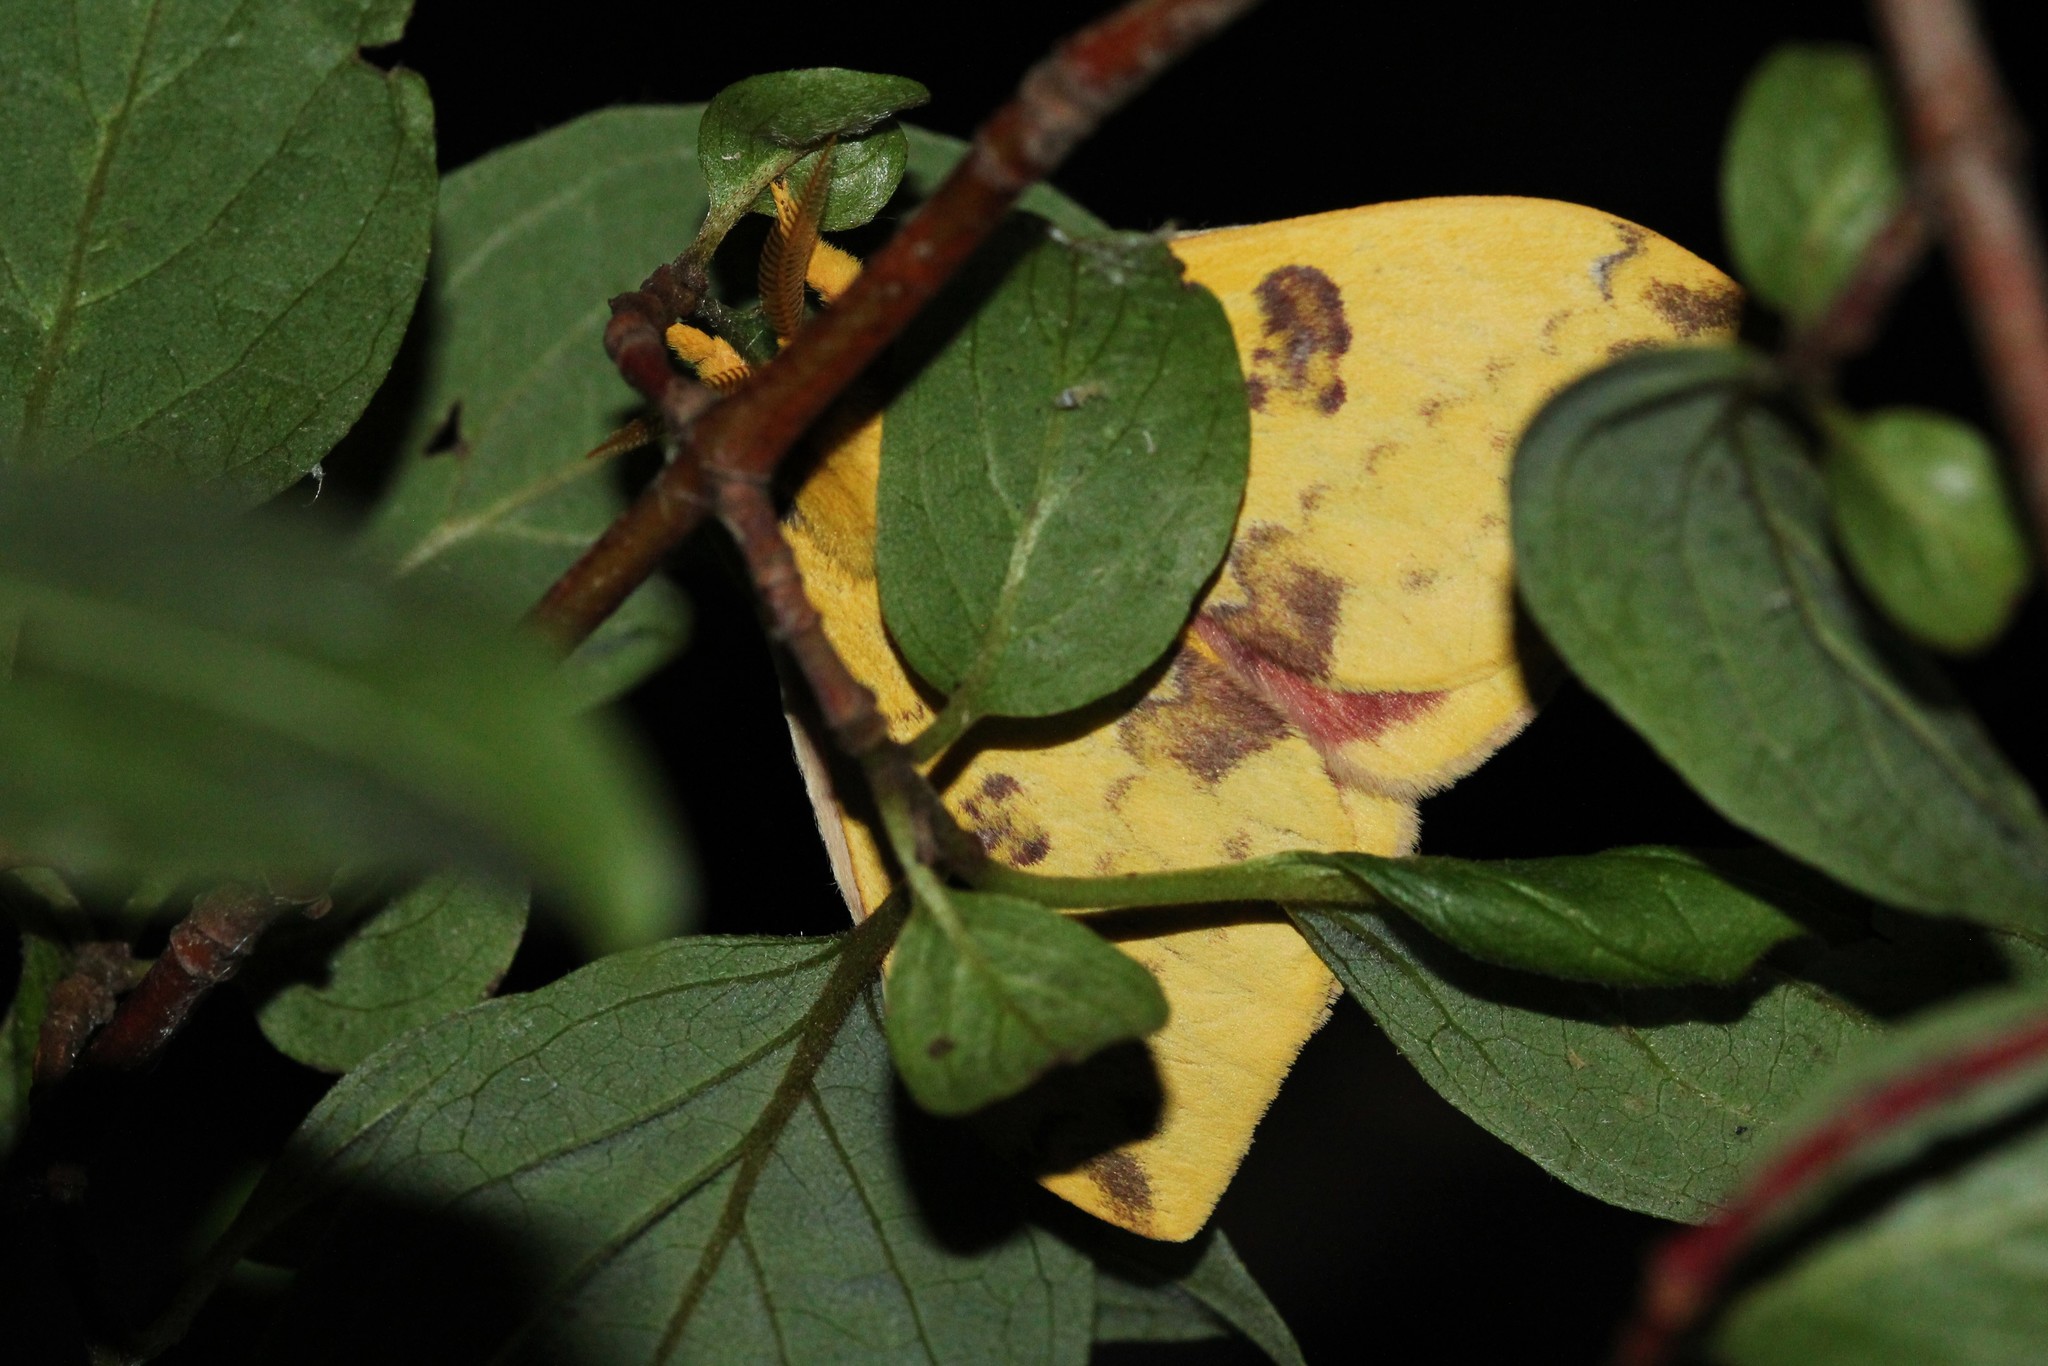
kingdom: Animalia
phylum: Arthropoda
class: Insecta
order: Lepidoptera
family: Saturniidae
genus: Automeris
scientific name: Automeris io
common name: Io moth
